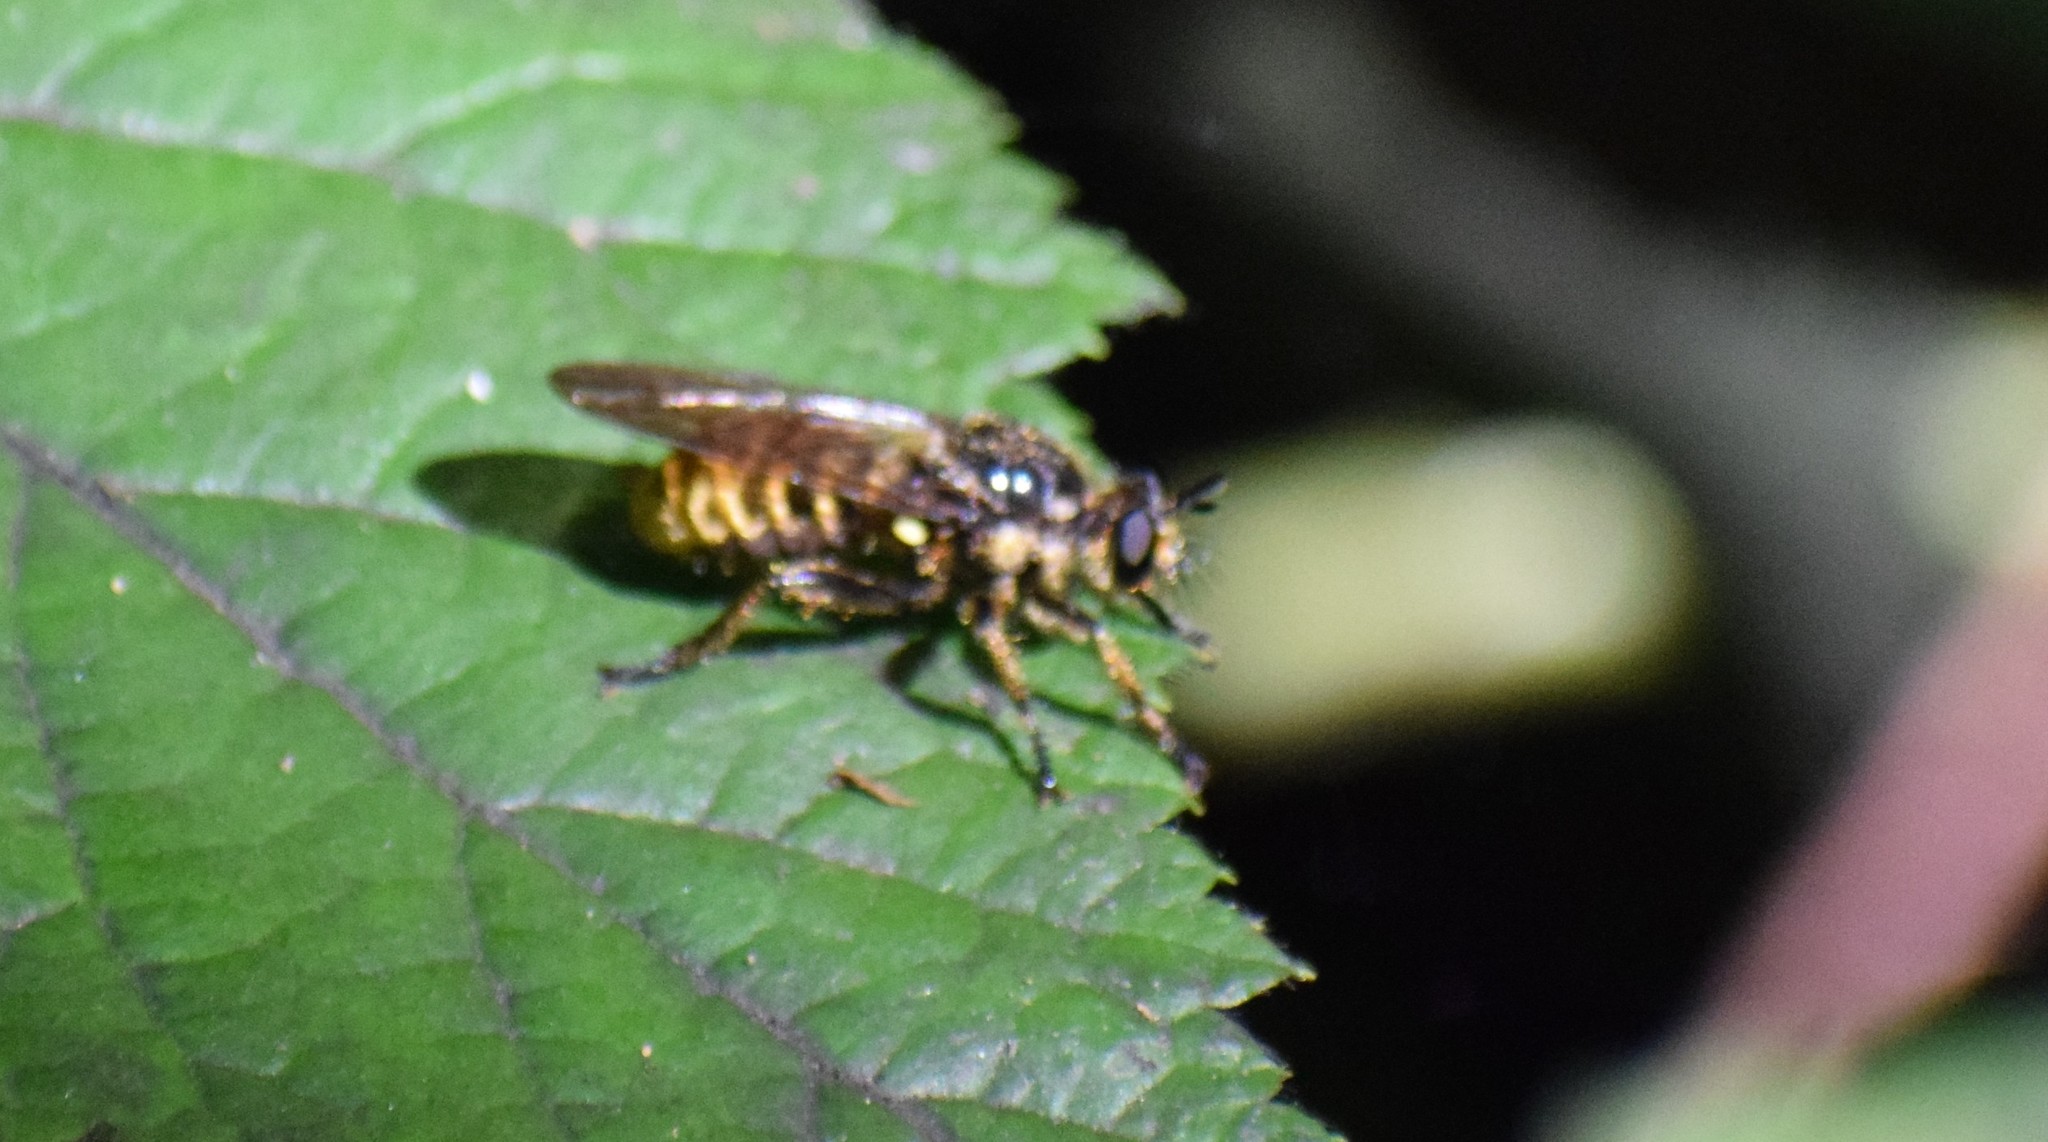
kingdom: Animalia
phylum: Arthropoda
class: Insecta
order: Diptera
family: Asilidae
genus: Lamyra
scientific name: Lamyra fimbriata
